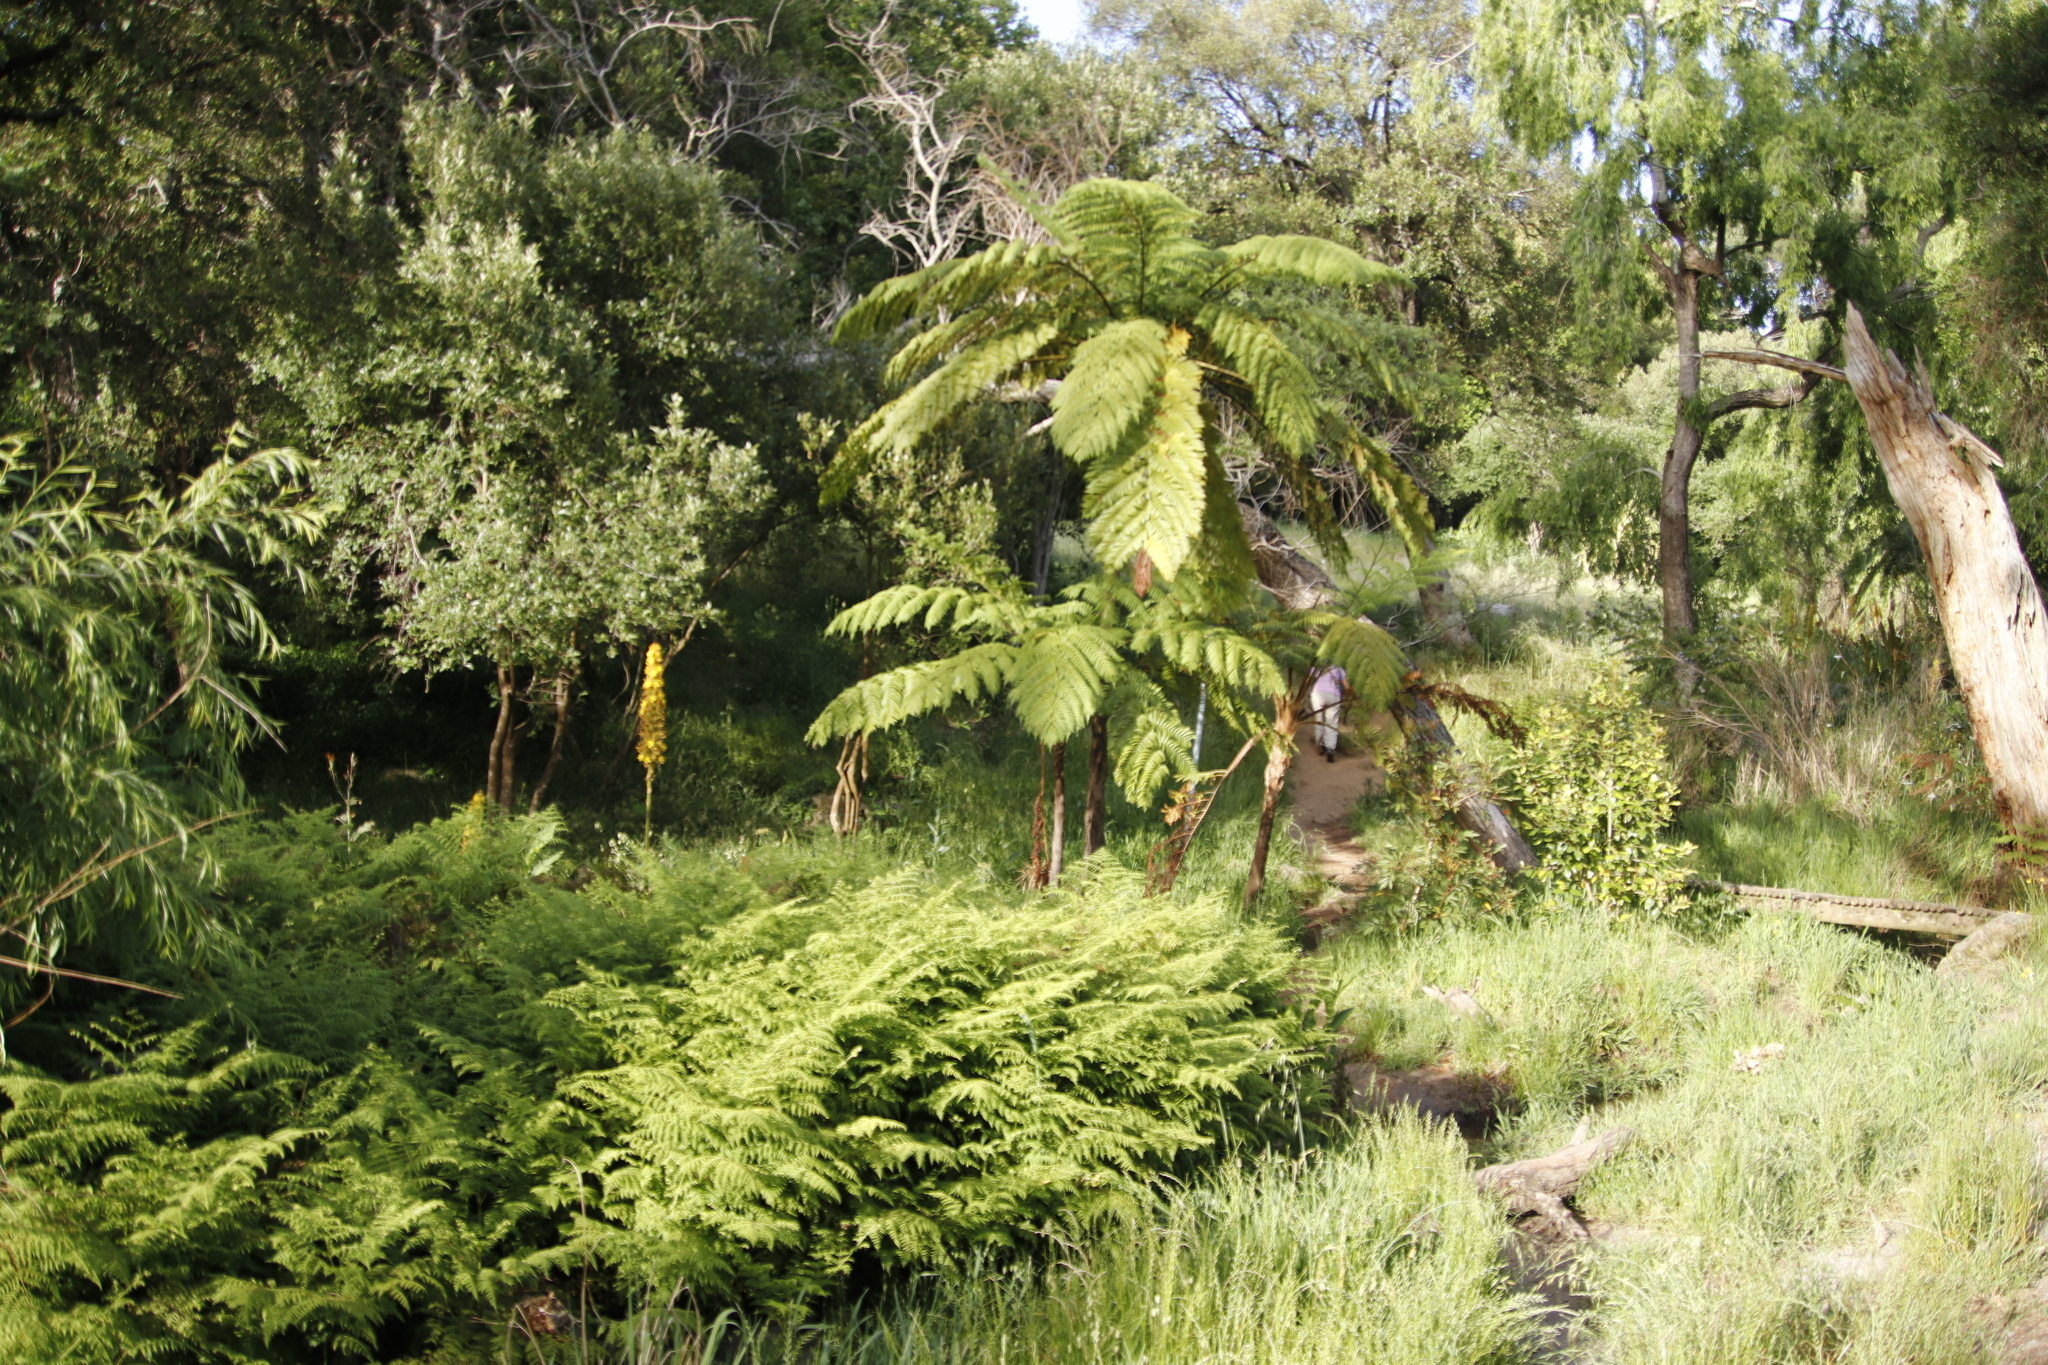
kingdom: Plantae
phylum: Tracheophyta
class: Polypodiopsida
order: Cyatheales
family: Cyatheaceae
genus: Sphaeropteris
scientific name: Sphaeropteris cooperi
